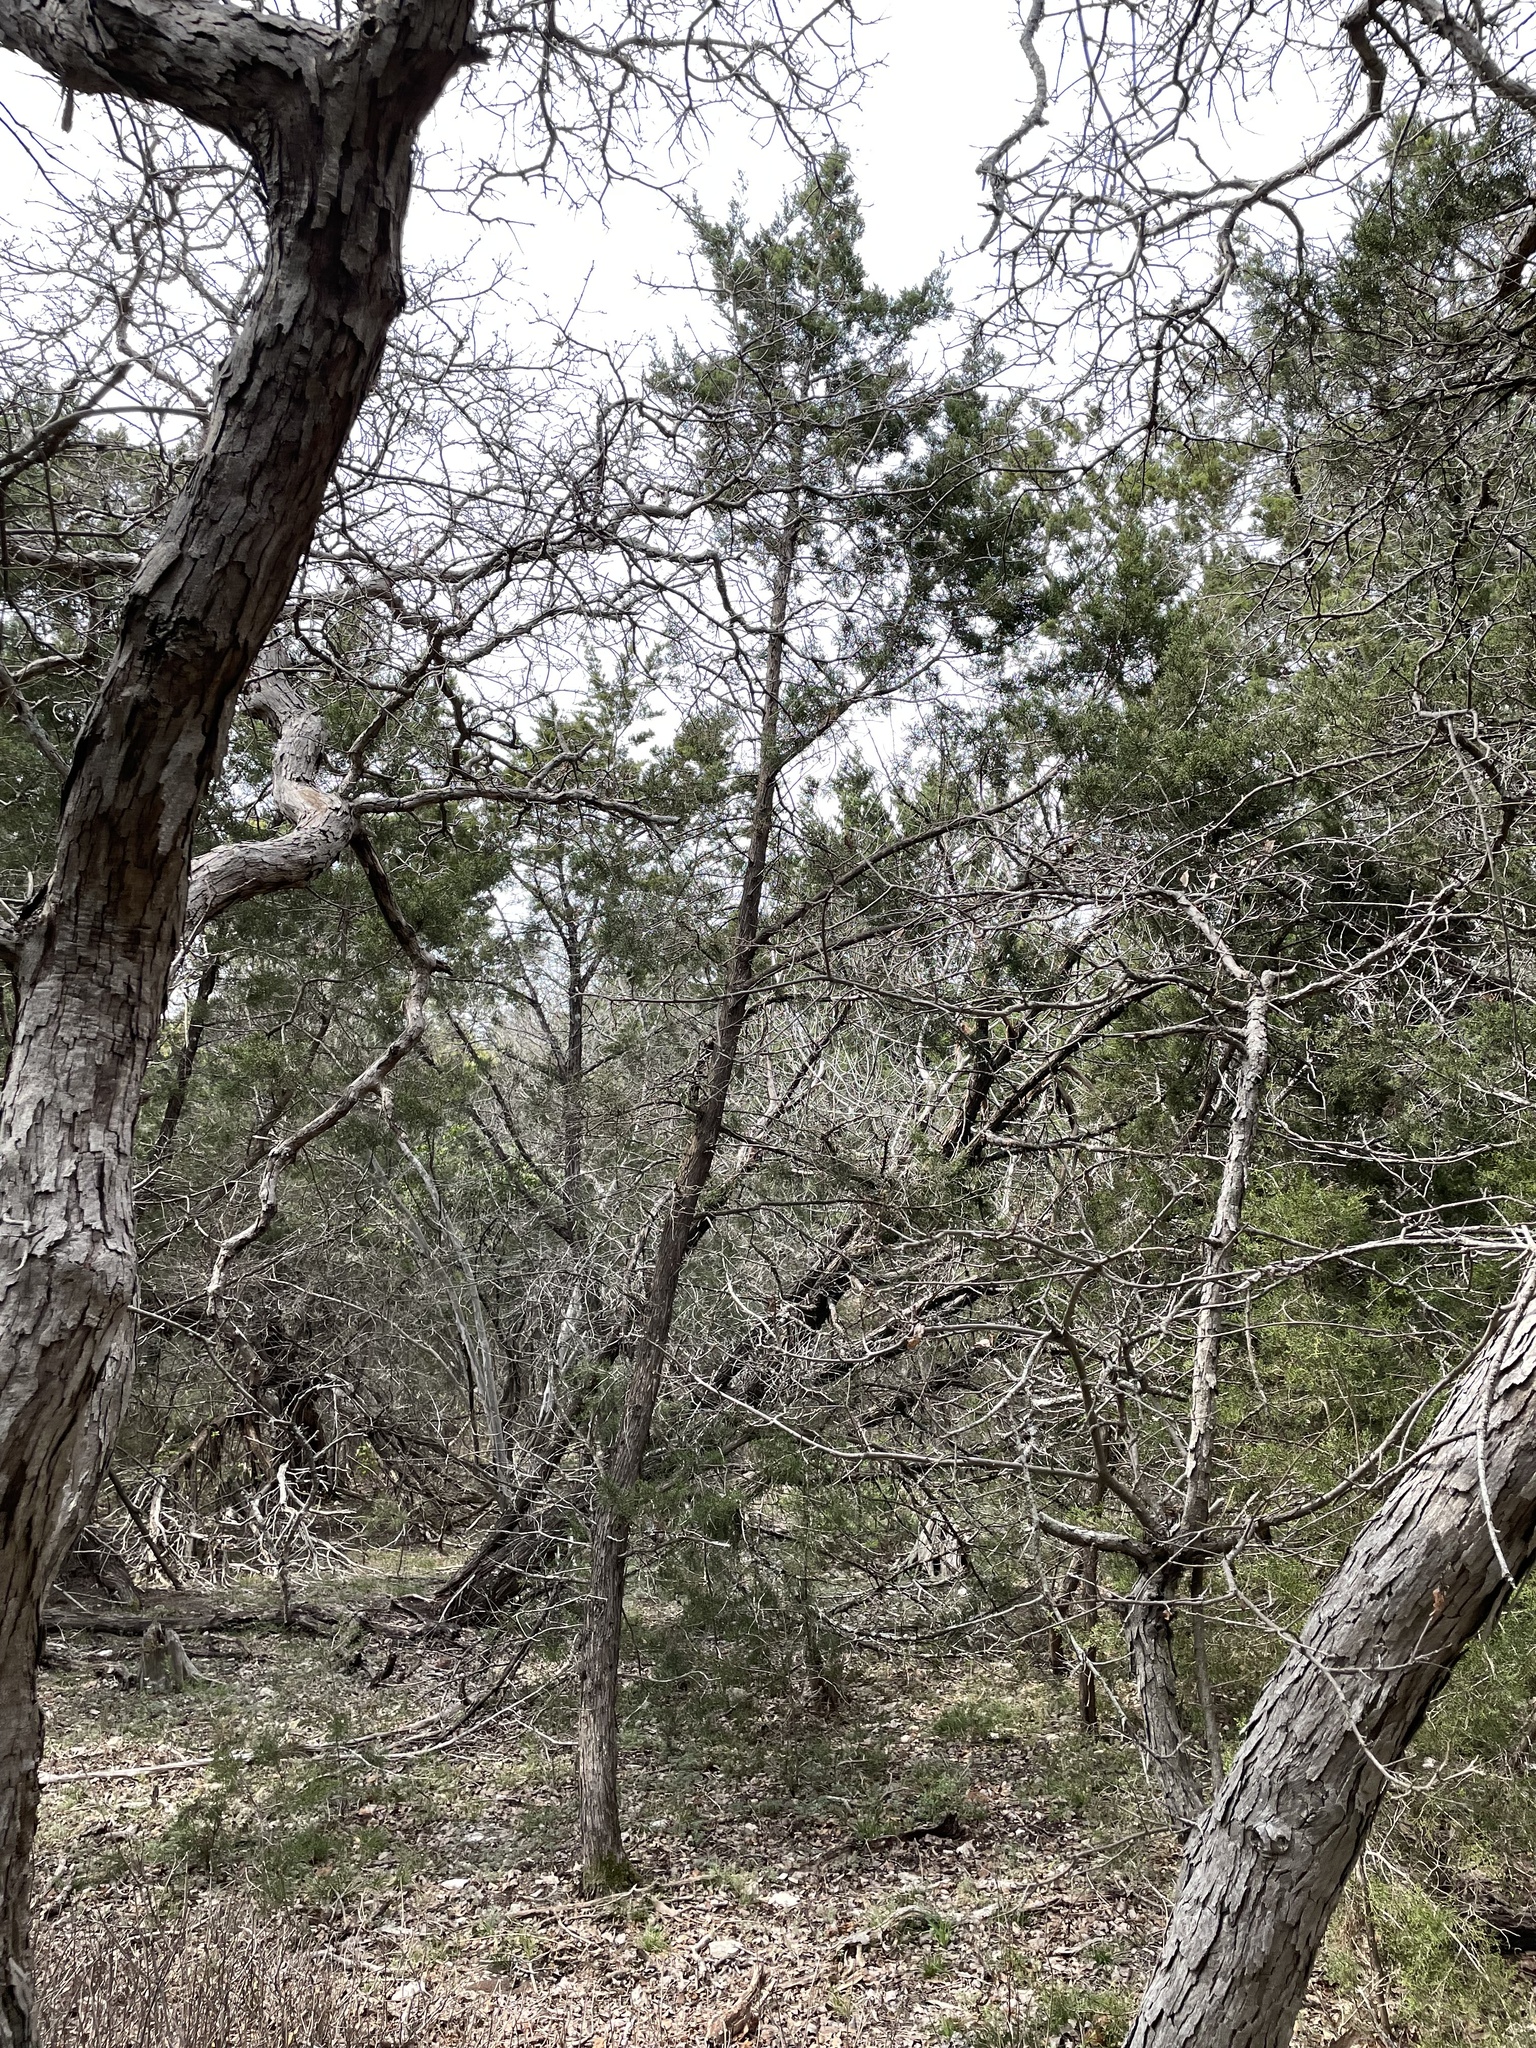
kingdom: Plantae
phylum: Tracheophyta
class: Pinopsida
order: Pinales
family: Cupressaceae
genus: Juniperus
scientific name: Juniperus ashei
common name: Mexican juniper
